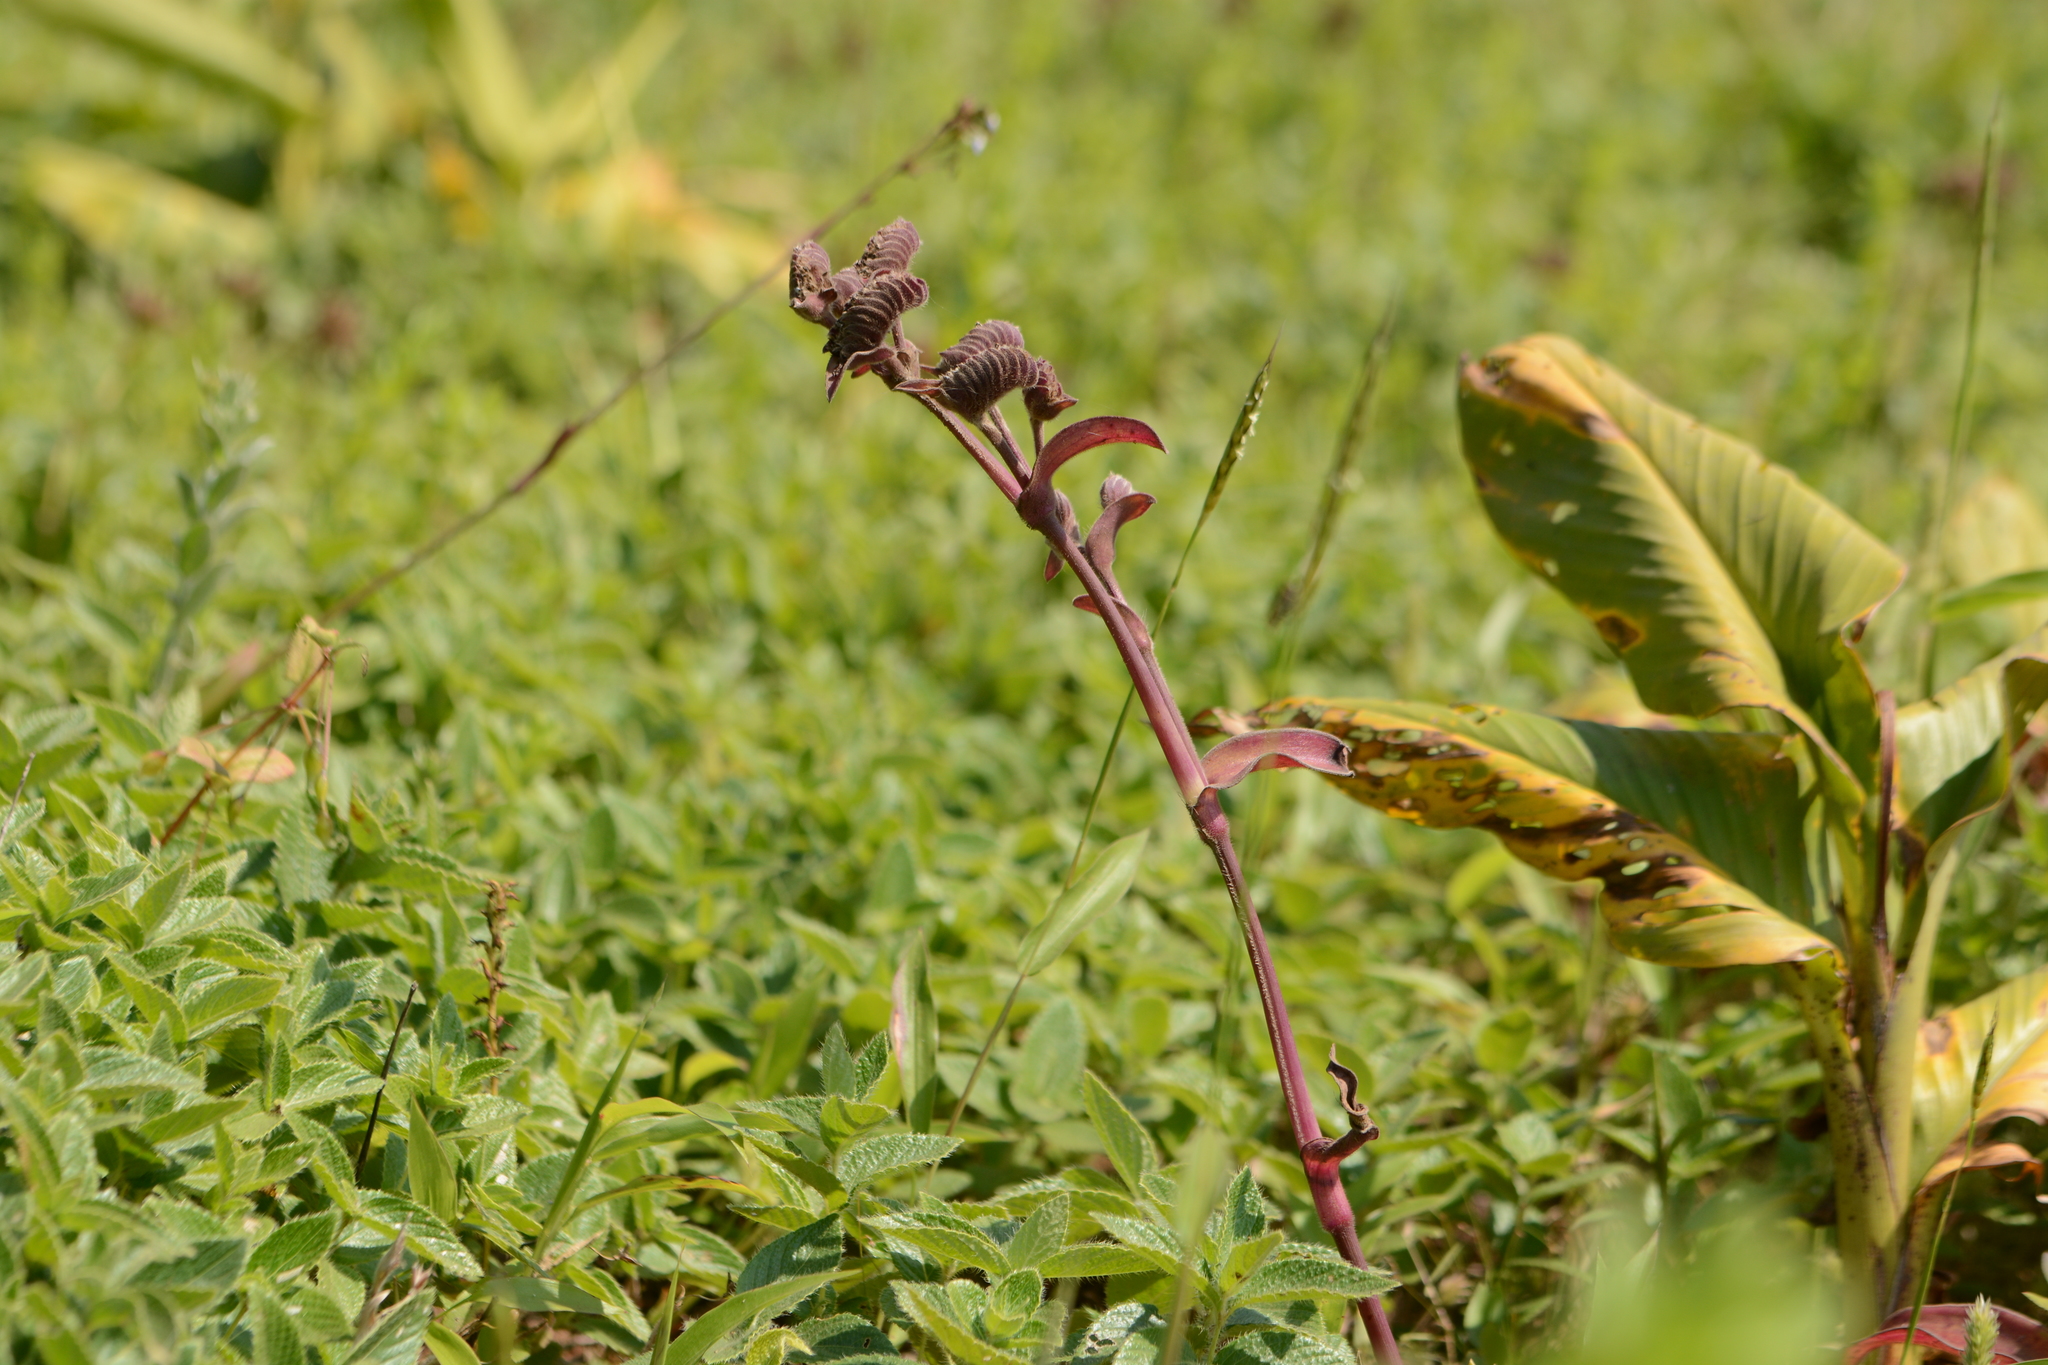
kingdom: Plantae
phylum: Tracheophyta
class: Liliopsida
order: Commelinales
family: Commelinaceae
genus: Cyanotis
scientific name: Cyanotis tuberosa
